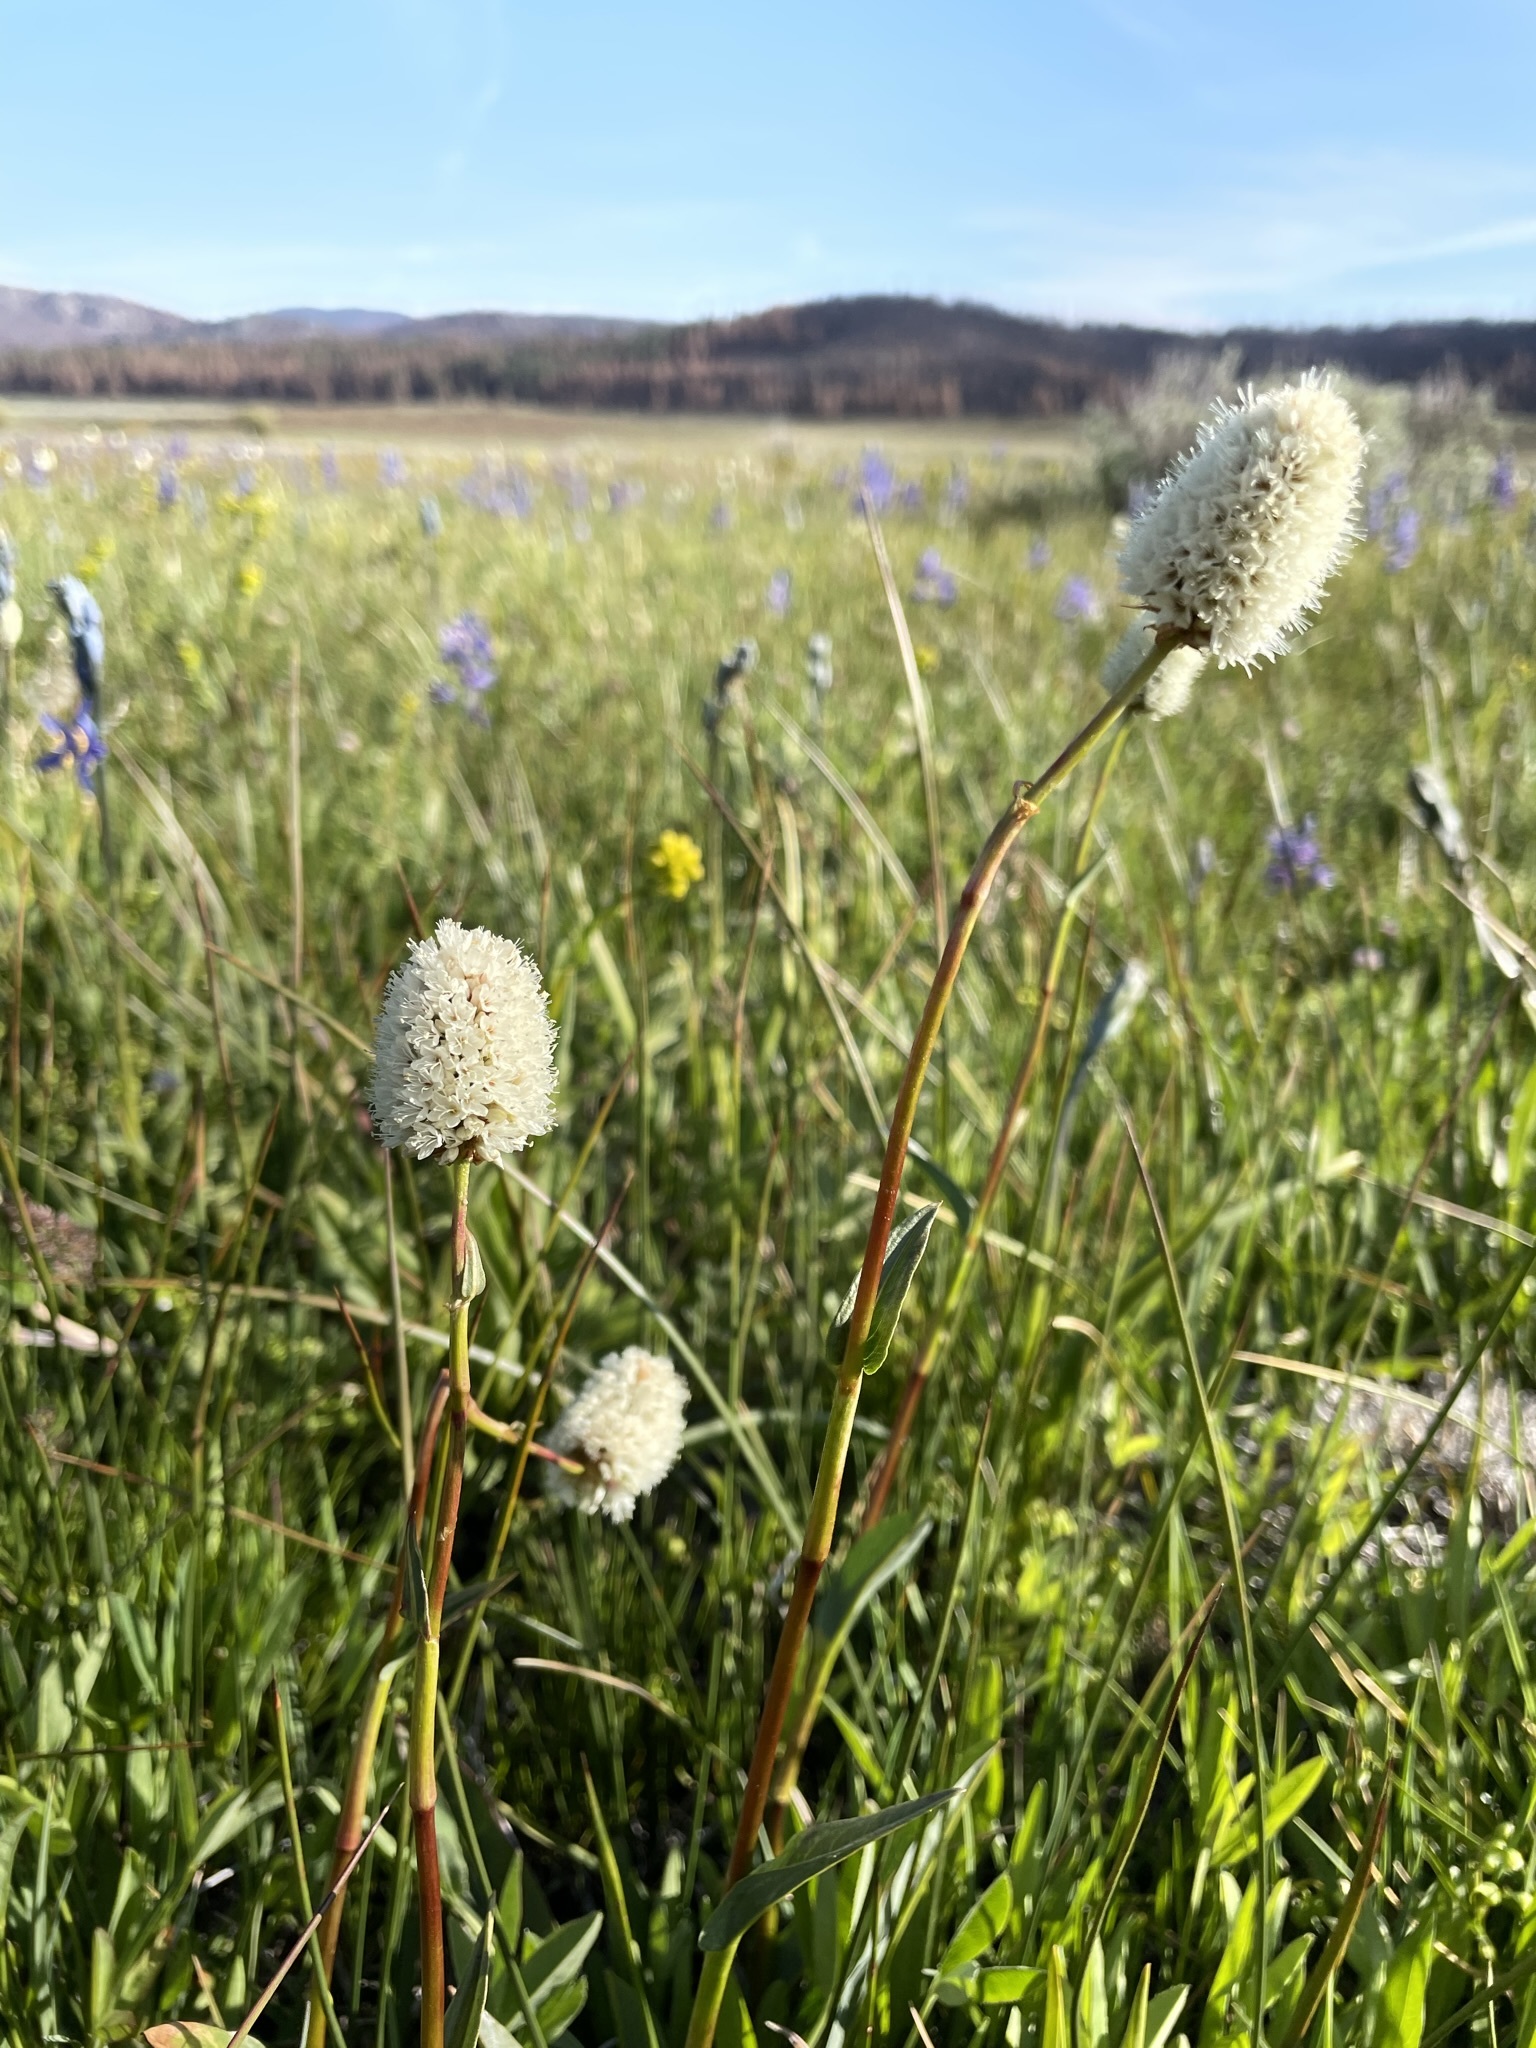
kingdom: Plantae
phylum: Tracheophyta
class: Magnoliopsida
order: Caryophyllales
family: Polygonaceae
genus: Bistorta
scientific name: Bistorta bistortoides
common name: American bistort
